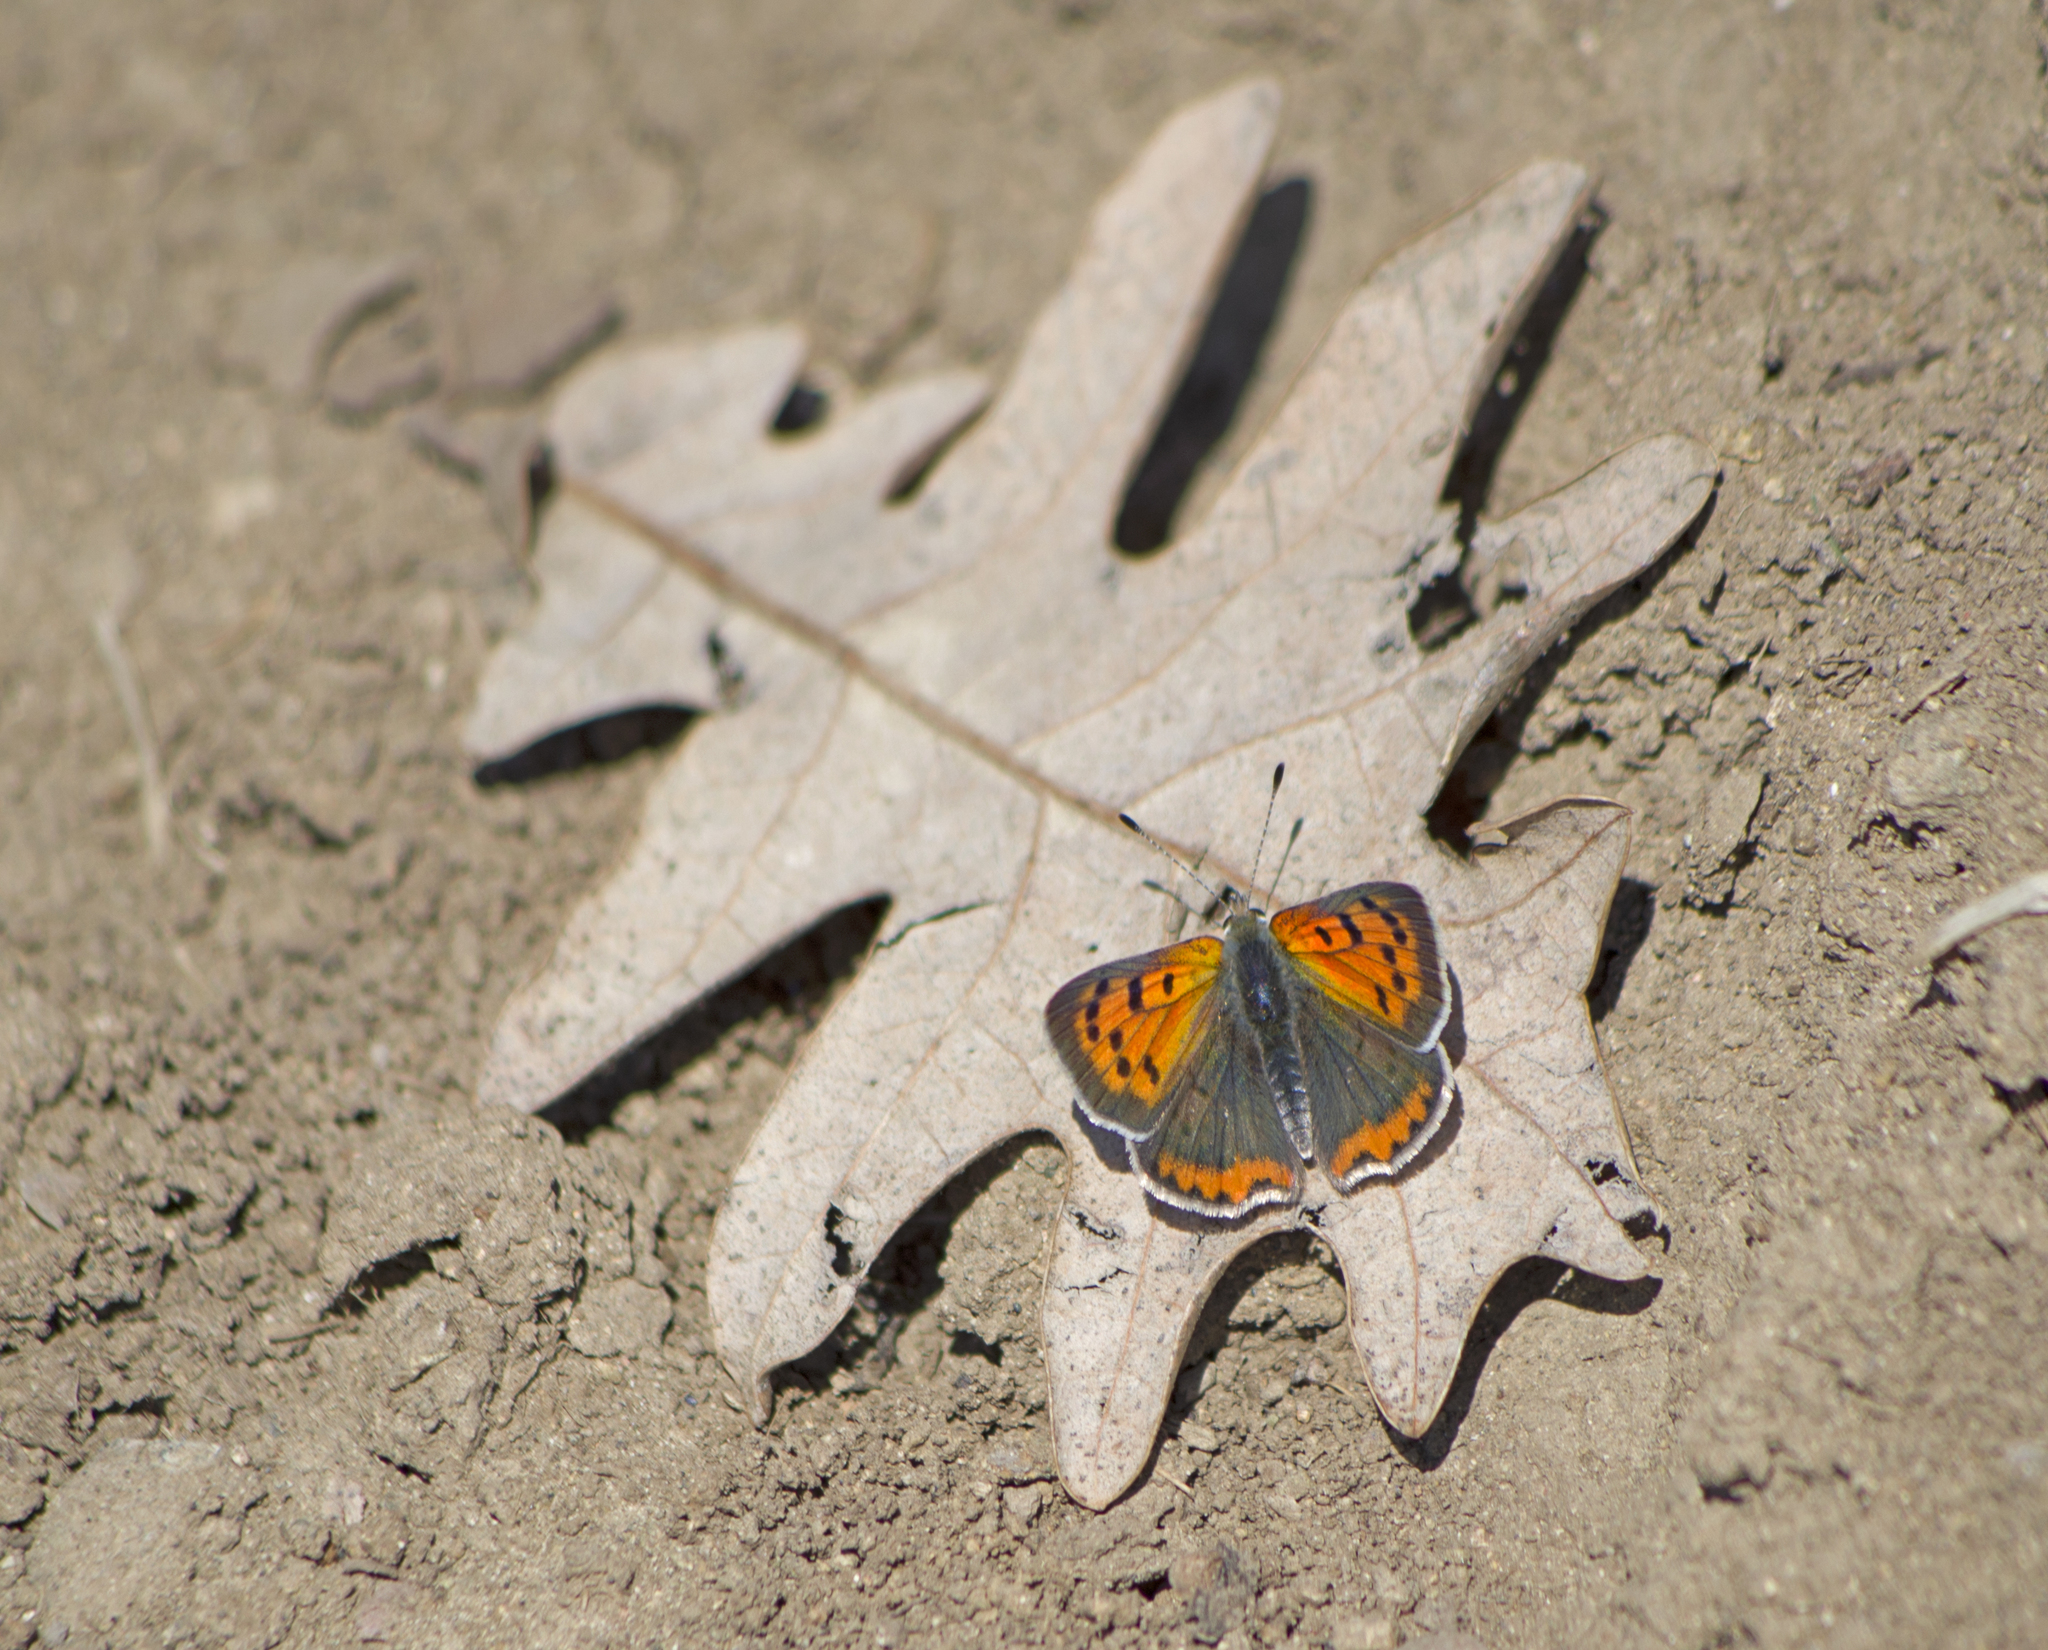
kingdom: Animalia
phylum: Arthropoda
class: Insecta
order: Lepidoptera
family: Lycaenidae
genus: Lycaena
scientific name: Lycaena phlaeas
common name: Small copper
